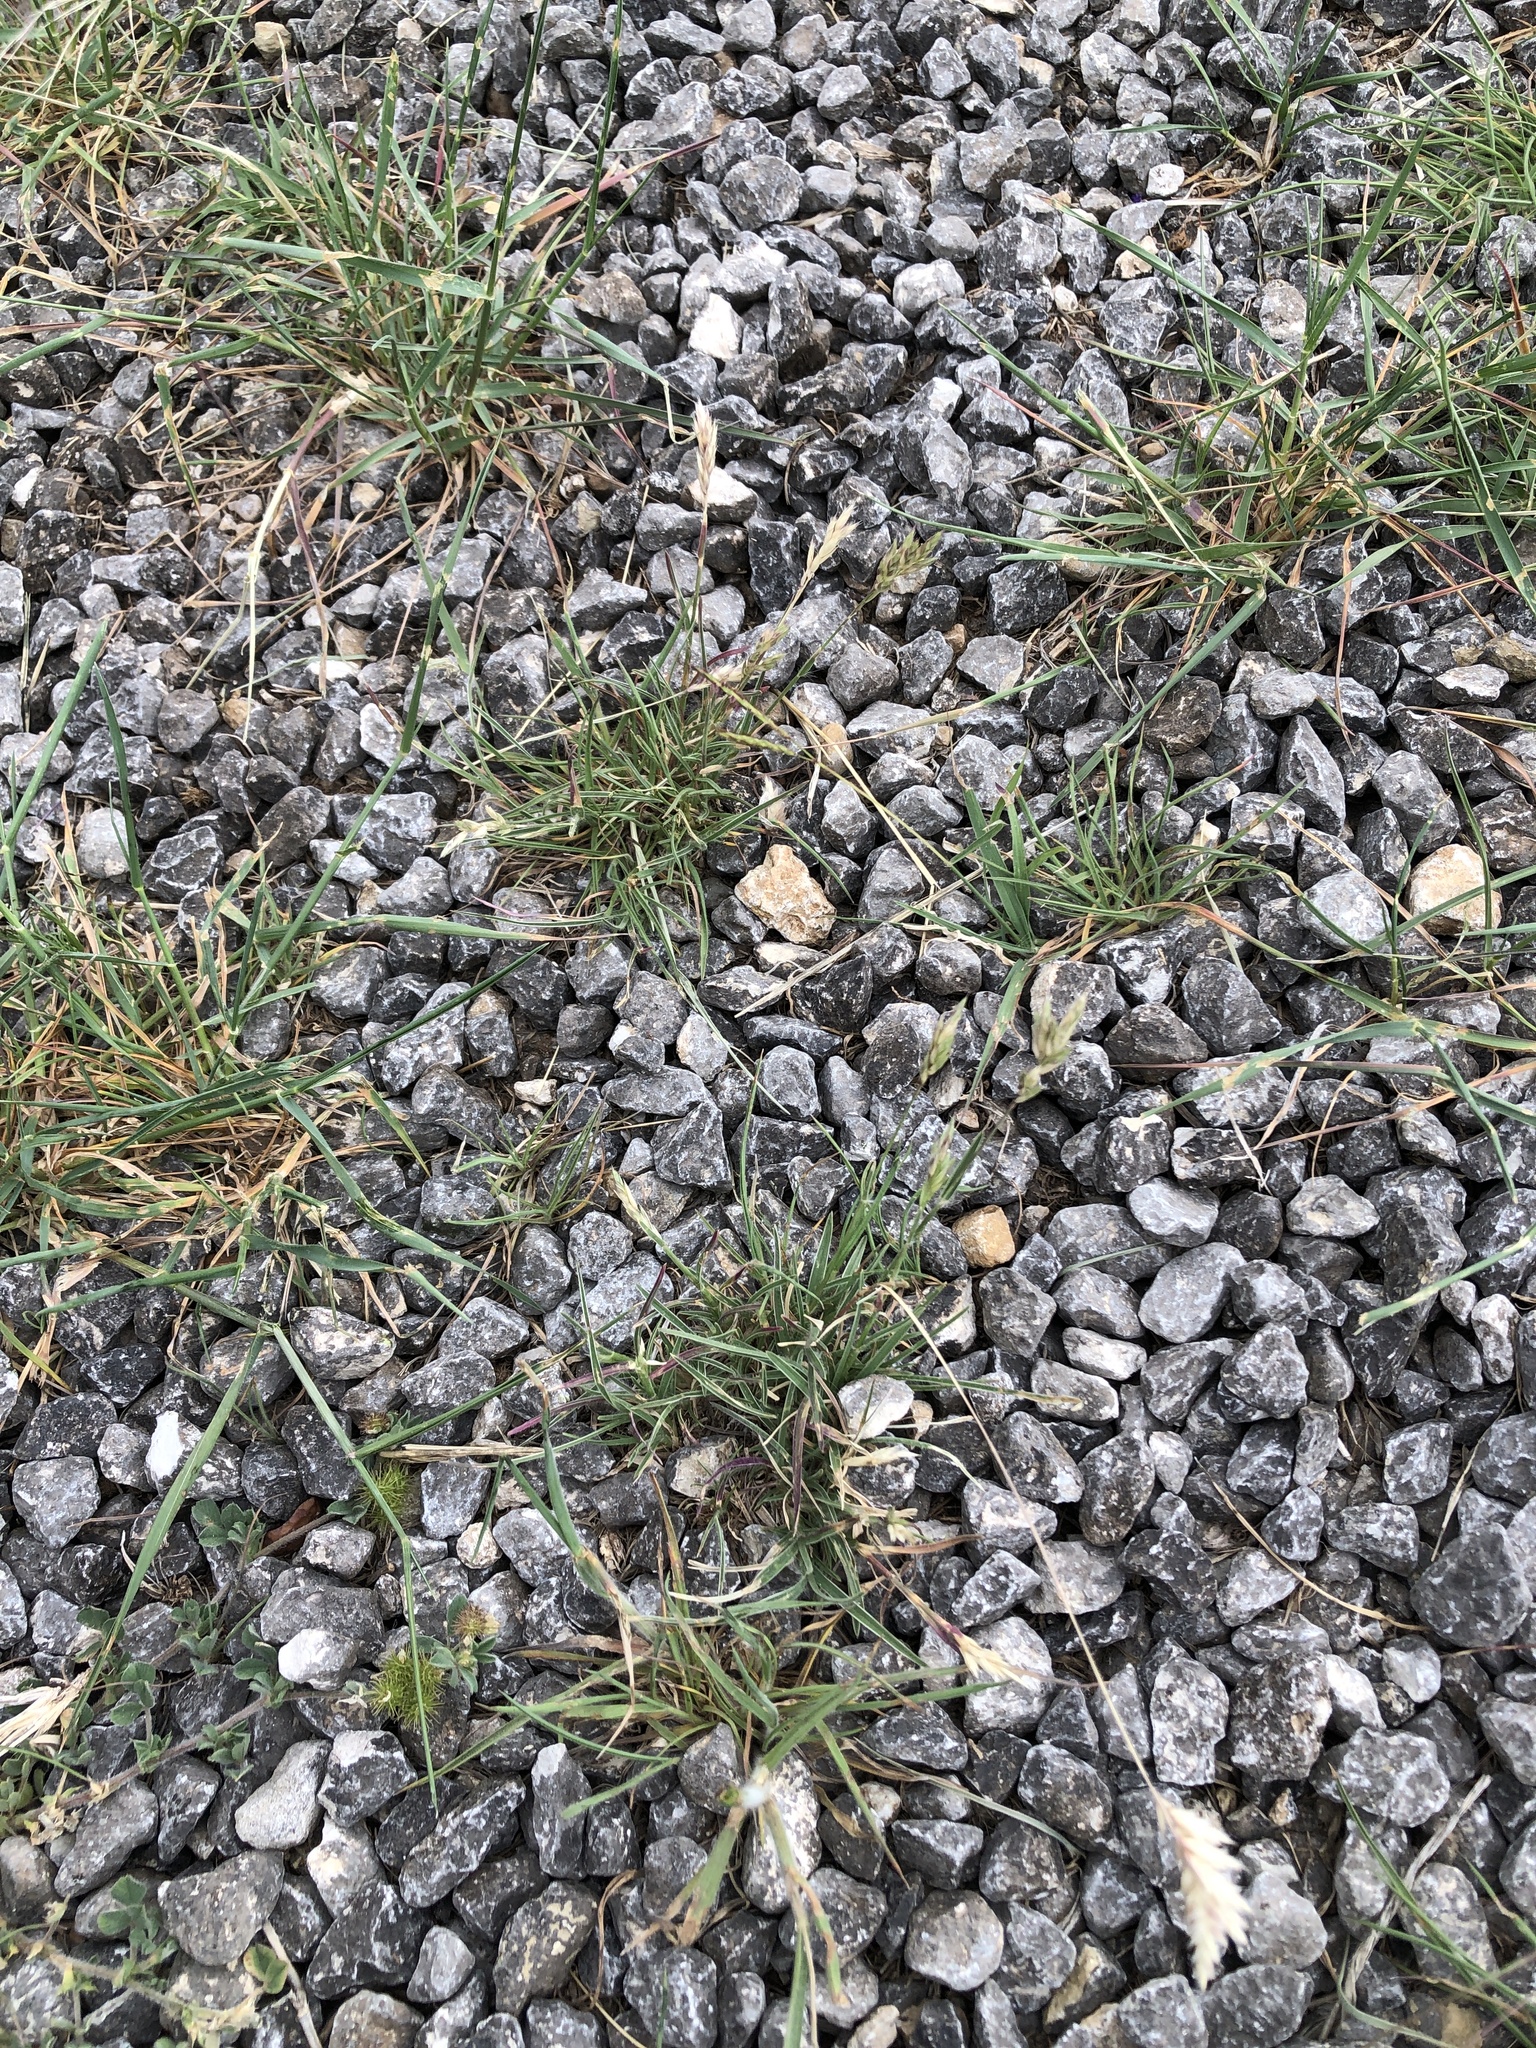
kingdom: Plantae
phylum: Tracheophyta
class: Liliopsida
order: Poales
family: Poaceae
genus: Erioneuron
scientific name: Erioneuron pilosum
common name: Hairy woolly grass
